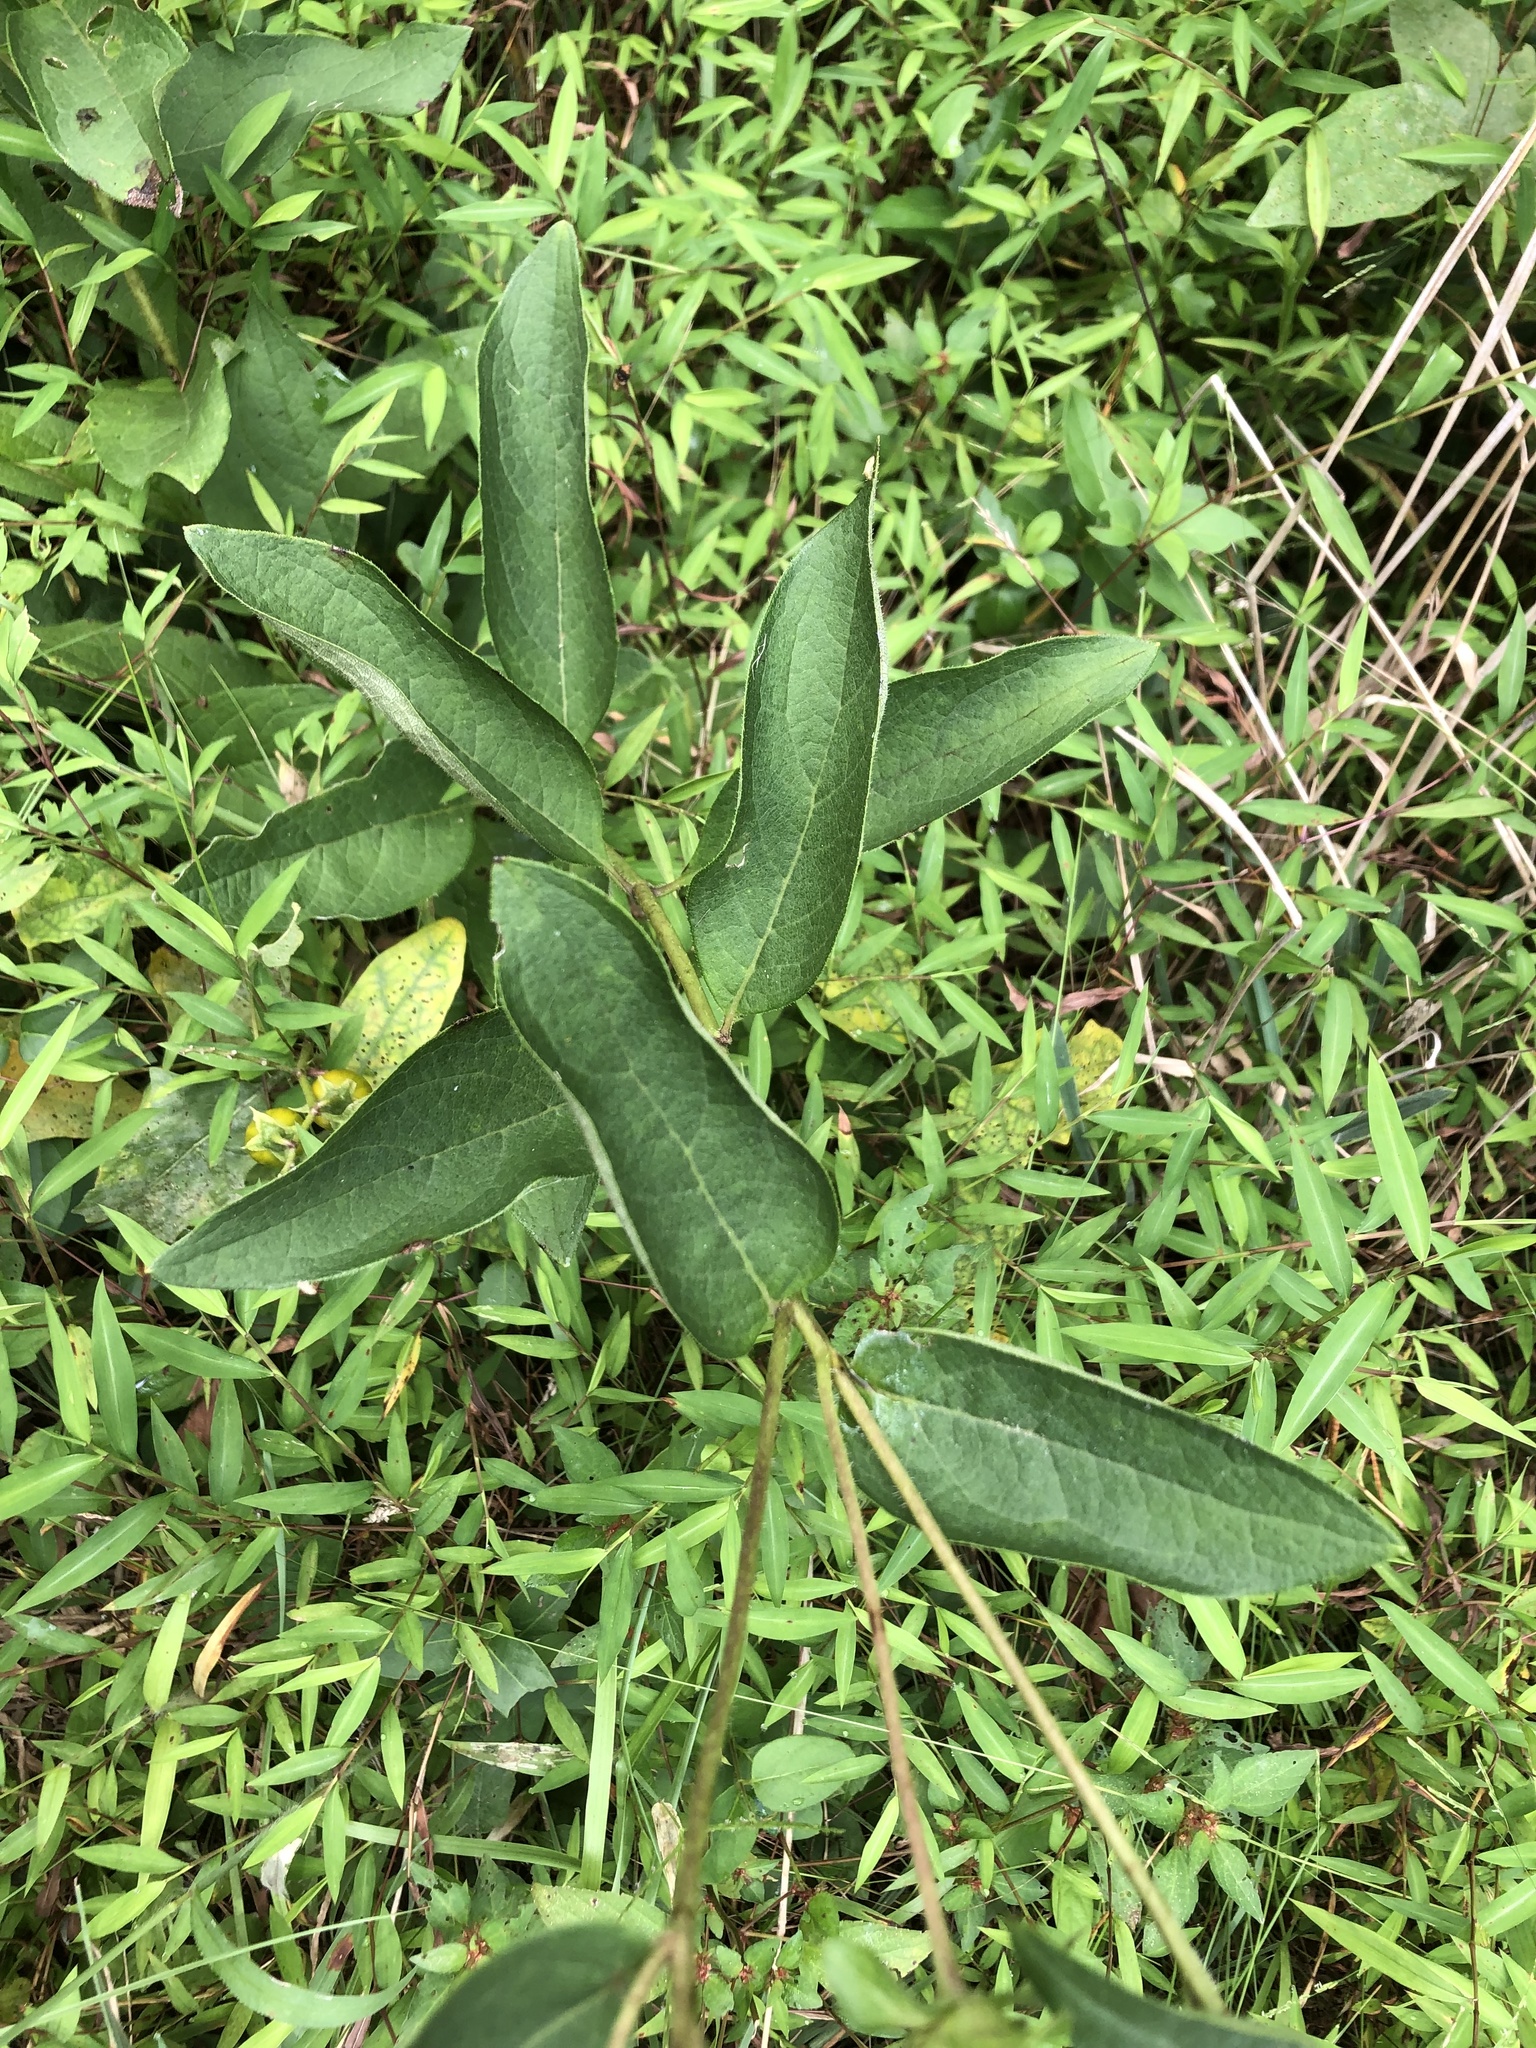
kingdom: Plantae
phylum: Tracheophyta
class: Magnoliopsida
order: Asterales
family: Asteraceae
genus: Silphium
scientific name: Silphium asteriscus
